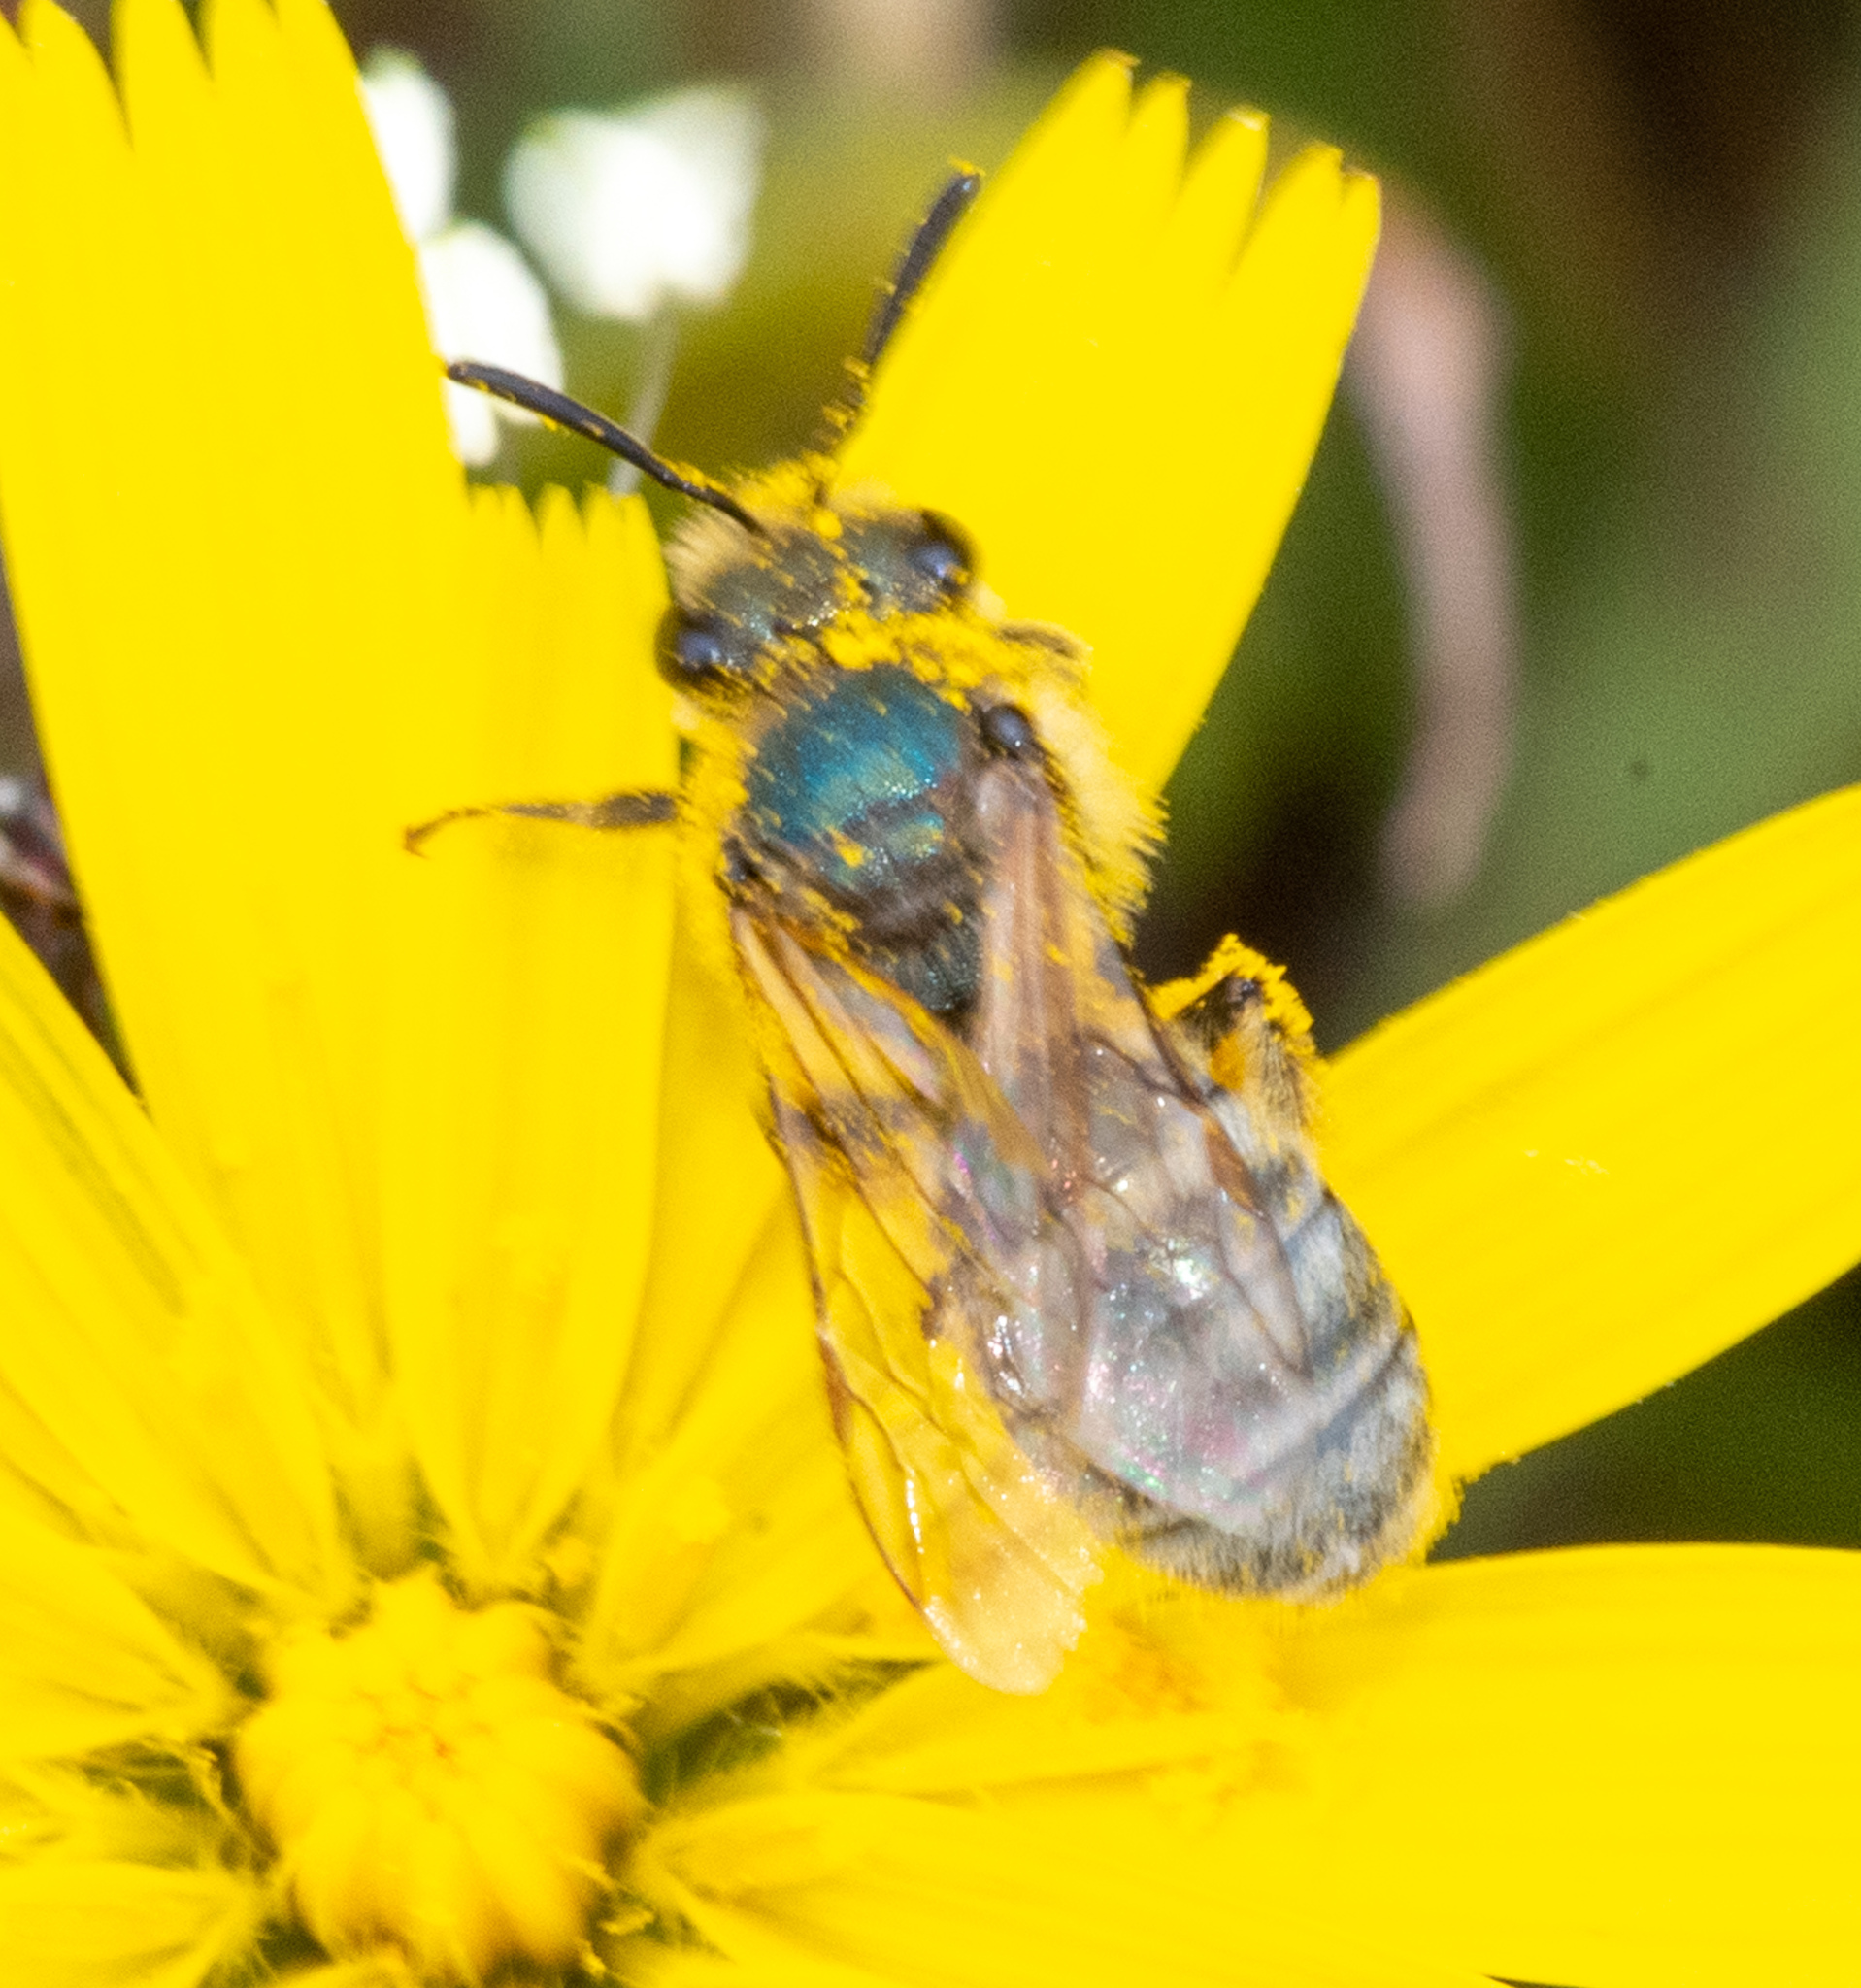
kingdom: Animalia
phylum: Arthropoda
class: Insecta
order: Hymenoptera
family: Halictidae
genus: Lasioglossum
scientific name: Lasioglossum pavonotum
